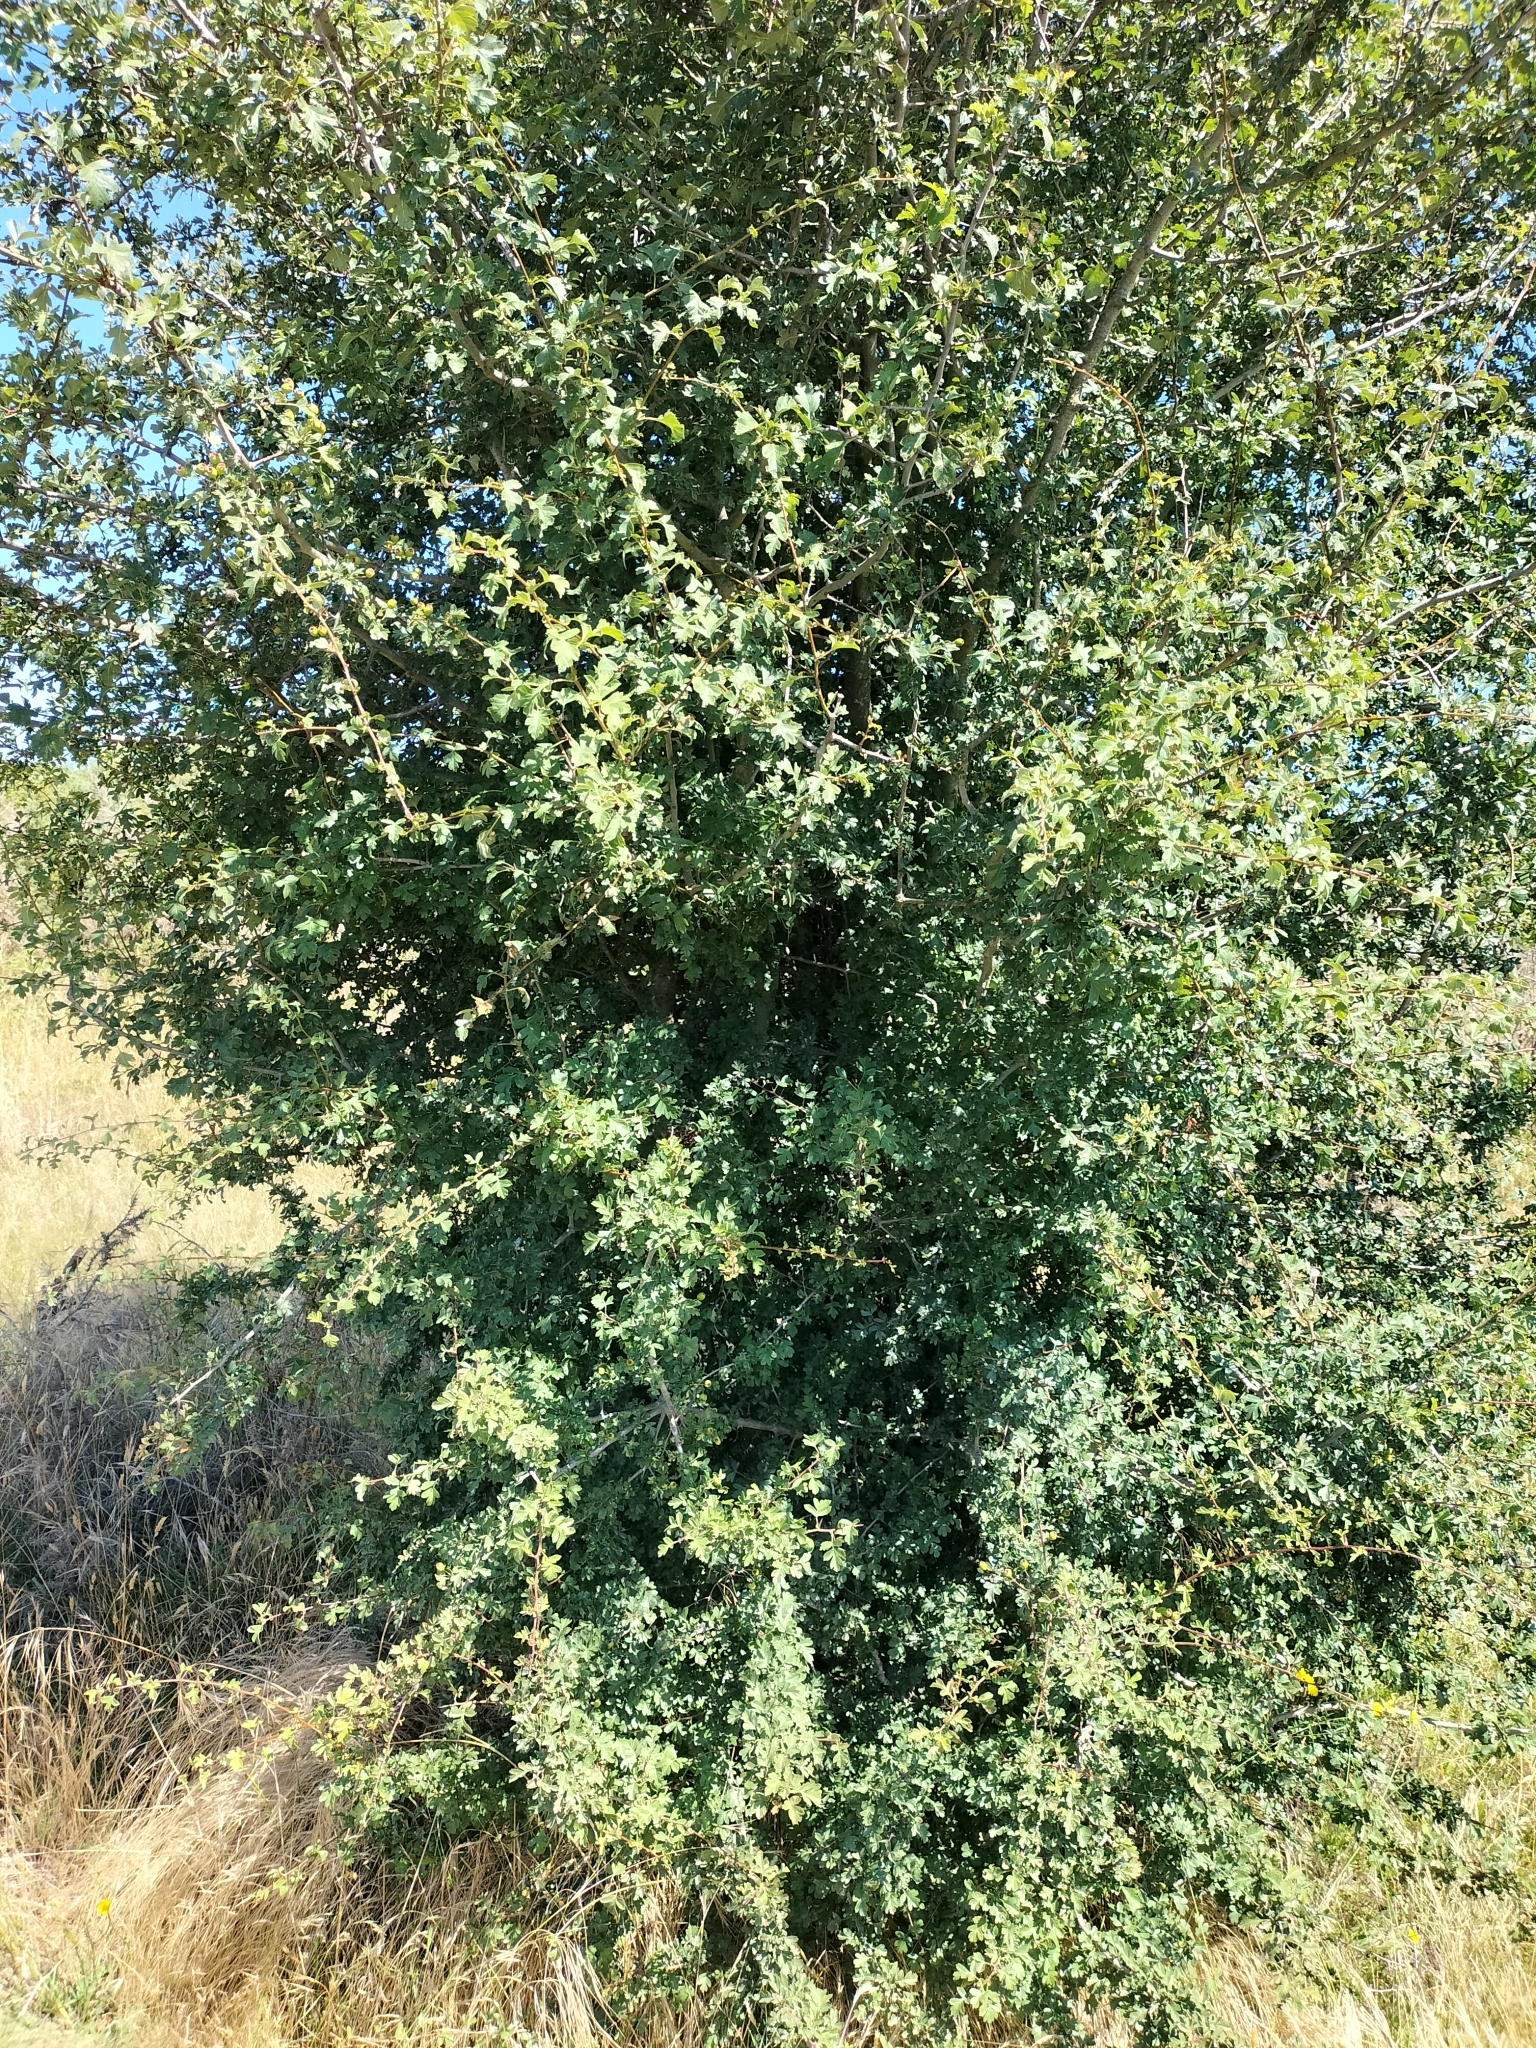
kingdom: Plantae
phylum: Tracheophyta
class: Magnoliopsida
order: Rosales
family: Rosaceae
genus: Crataegus
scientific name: Crataegus monogyna
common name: Hawthorn
